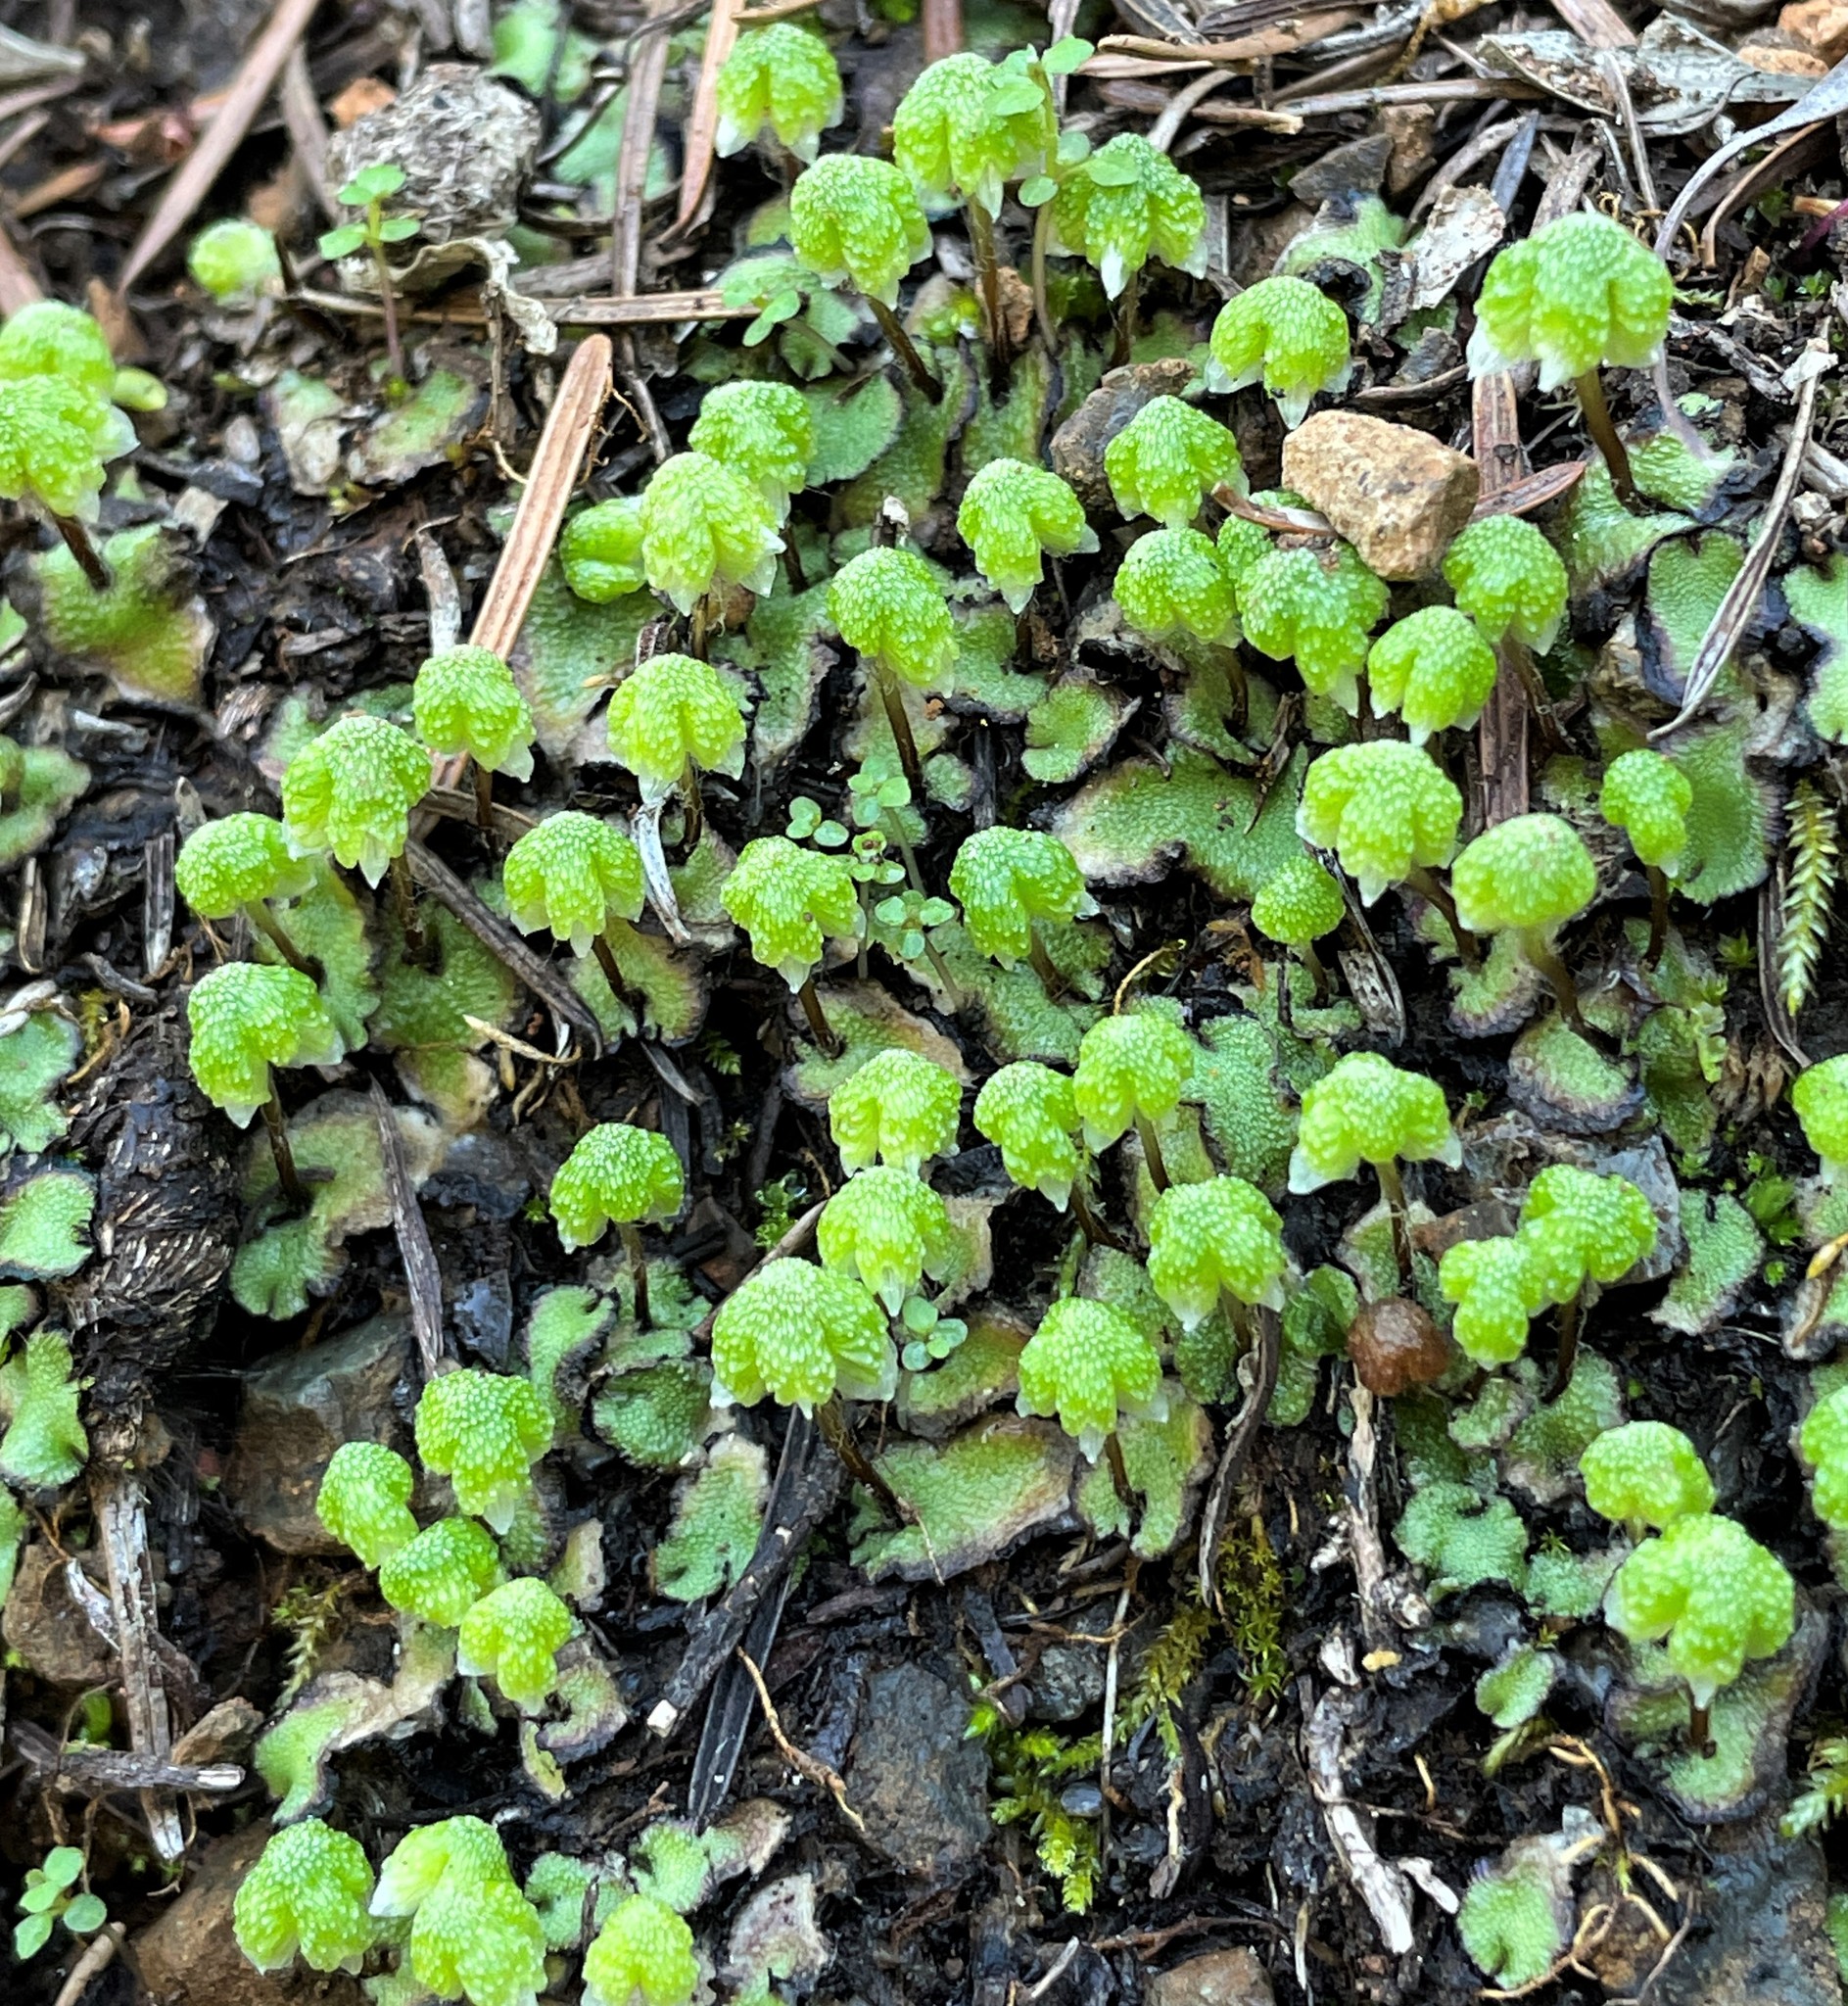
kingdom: Plantae
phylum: Marchantiophyta
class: Marchantiopsida
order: Marchantiales
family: Aytoniaceae
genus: Asterella
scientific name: Asterella californica
